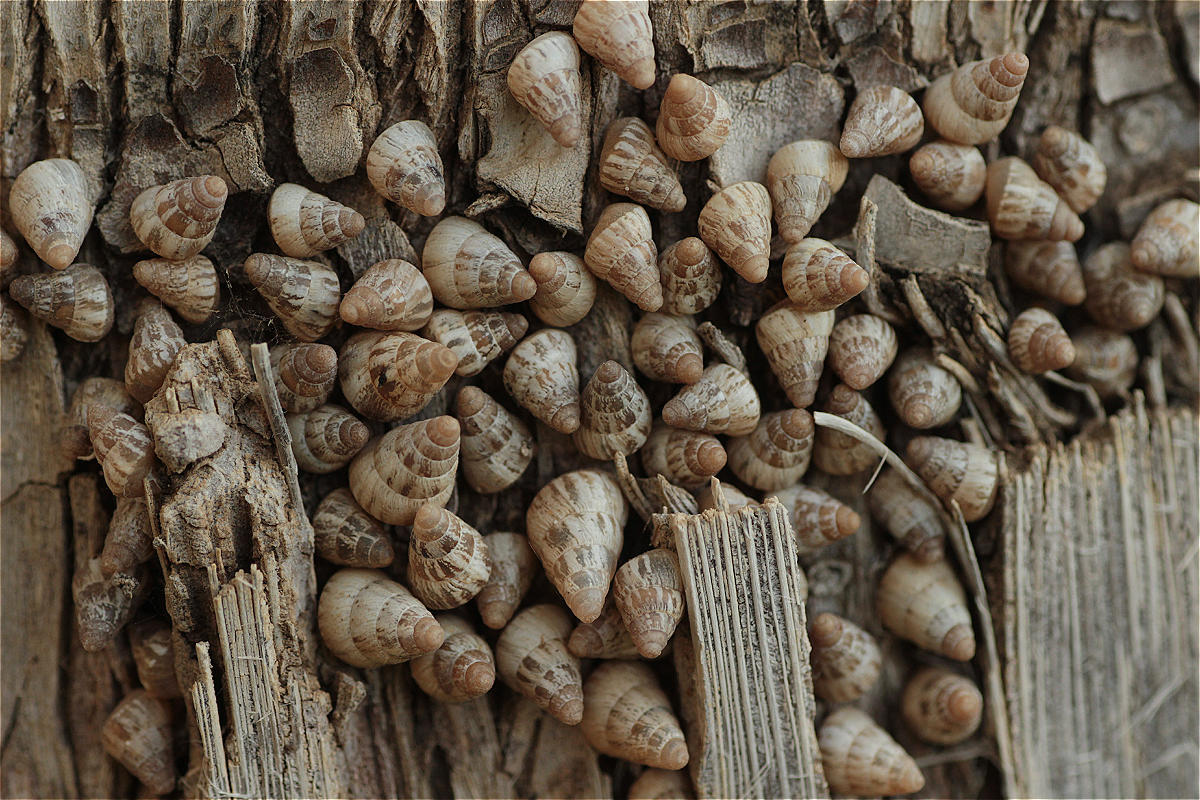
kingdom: Animalia
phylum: Mollusca
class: Gastropoda
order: Stylommatophora
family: Geomitridae
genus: Cochlicella
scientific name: Cochlicella barbara
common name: Potbellied helicellid
